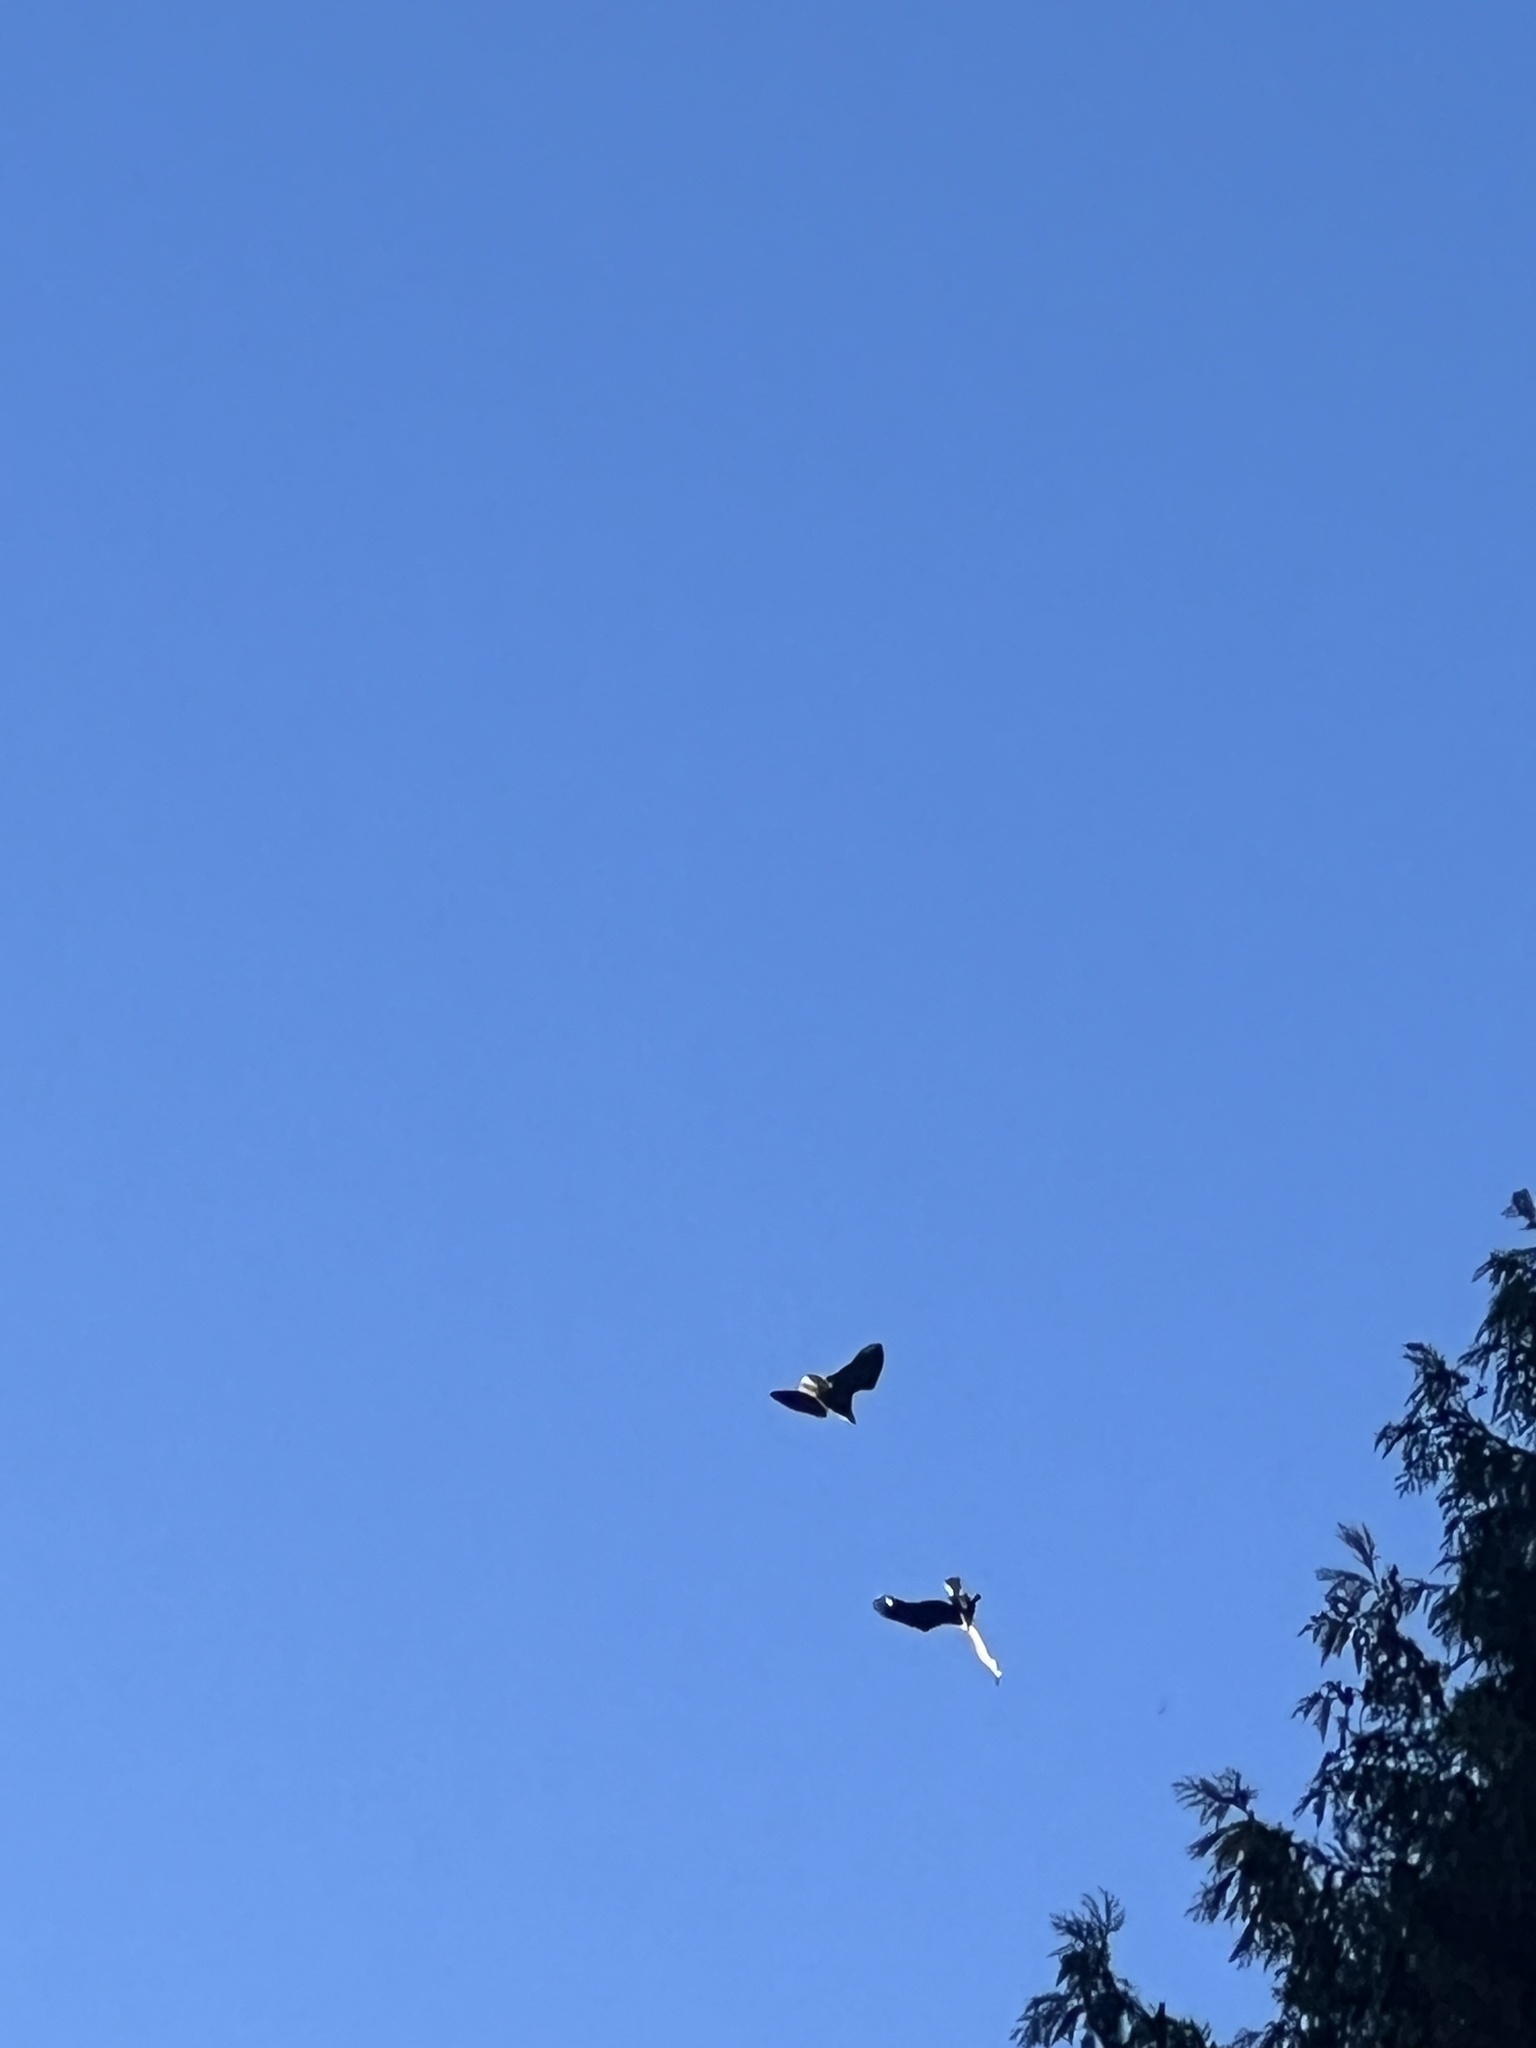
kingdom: Animalia
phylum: Chordata
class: Aves
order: Accipitriformes
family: Accipitridae
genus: Haliaeetus
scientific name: Haliaeetus leucocephalus
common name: Bald eagle
